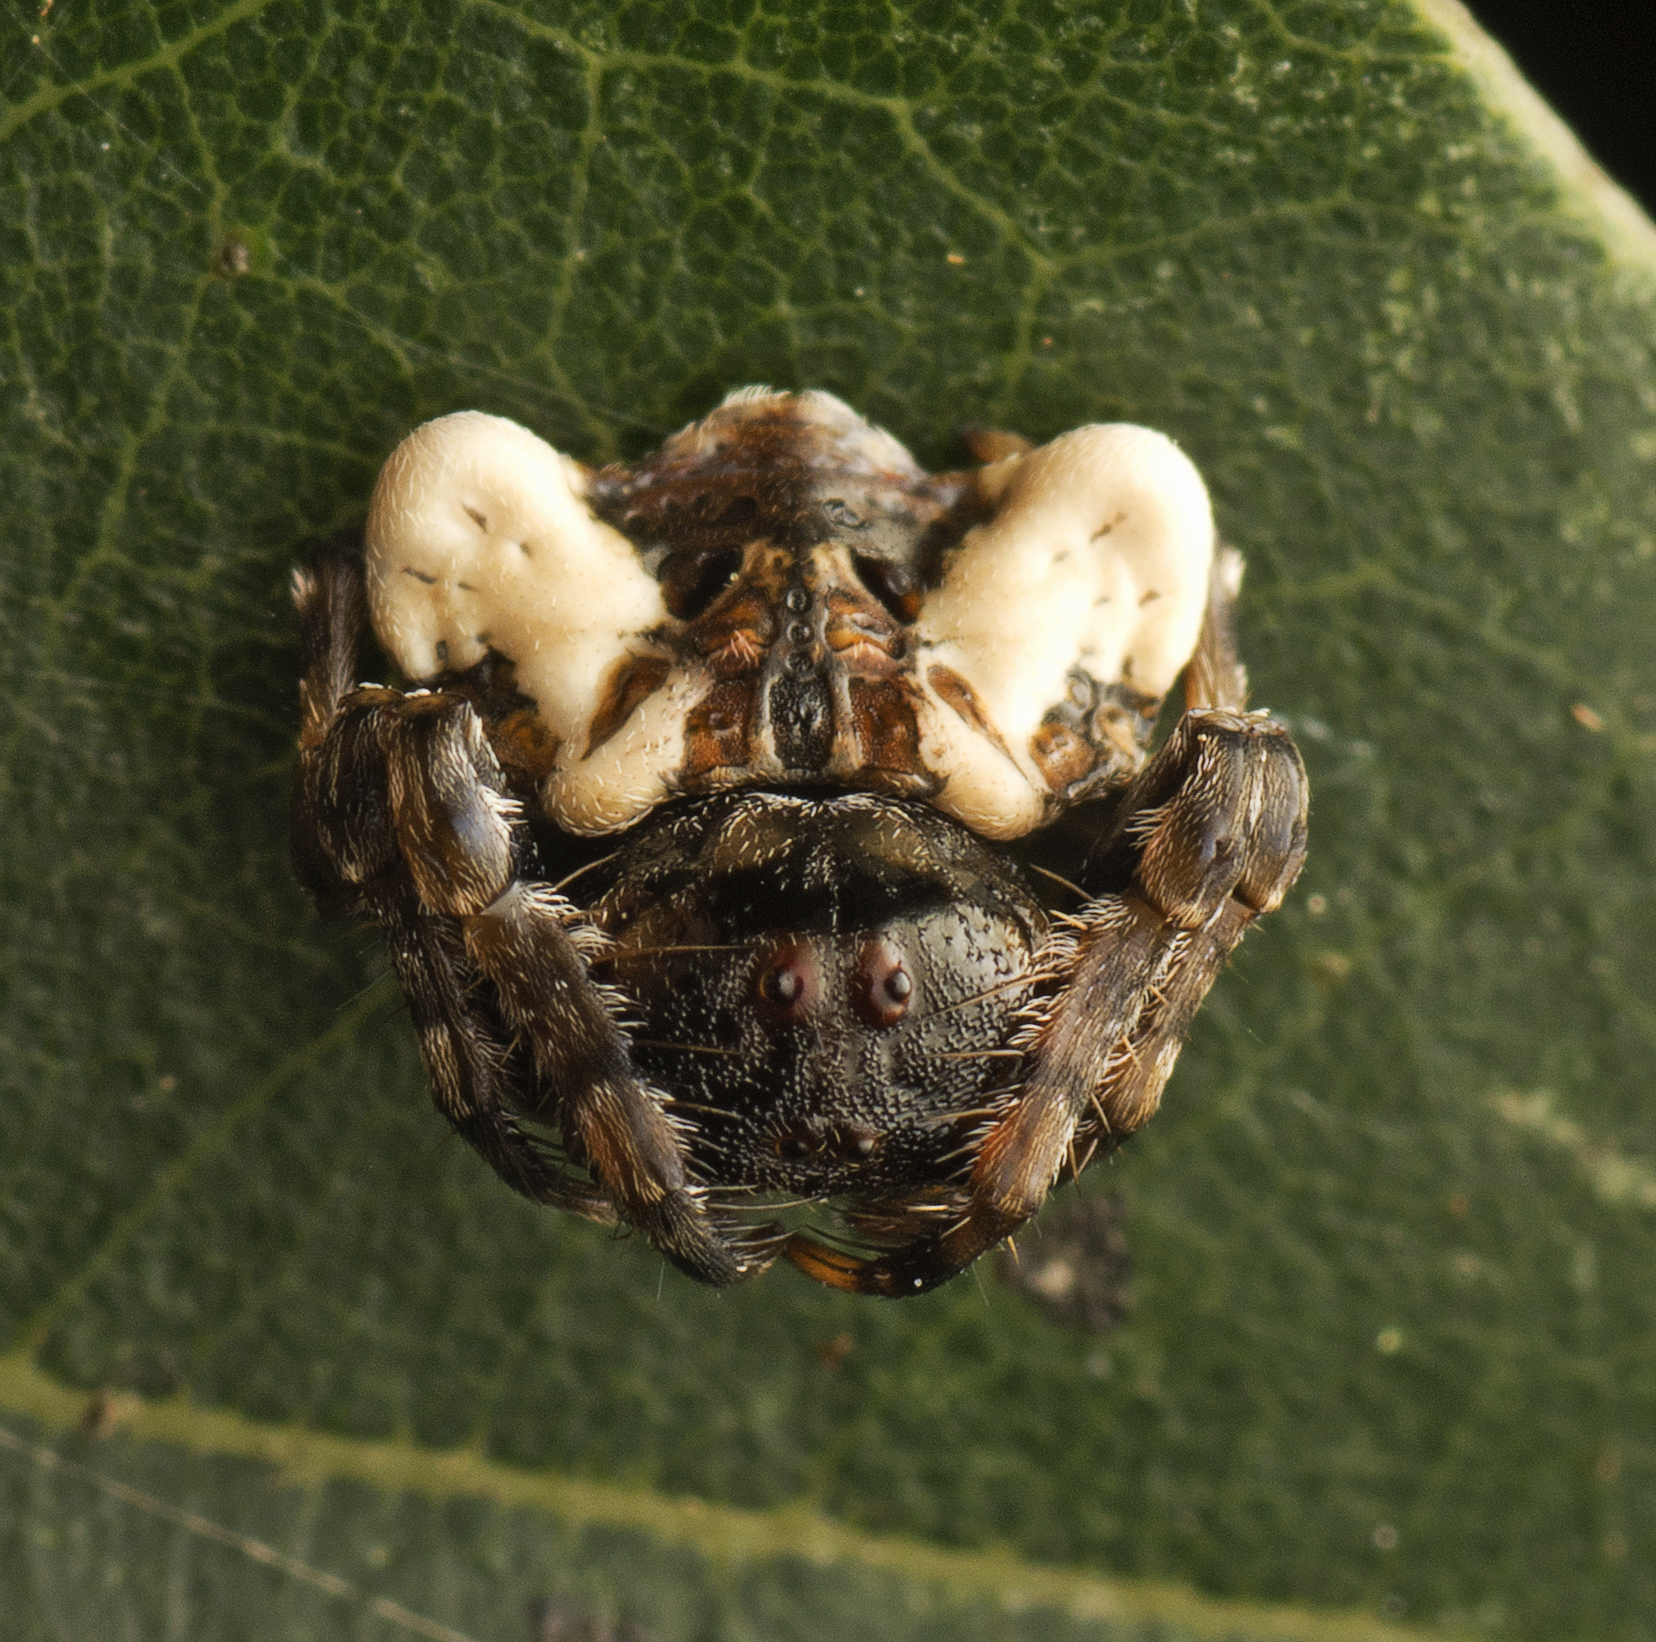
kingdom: Animalia
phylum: Arthropoda
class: Arachnida
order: Araneae
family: Arkyidae
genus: Arkys
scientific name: Arkys curtulus
